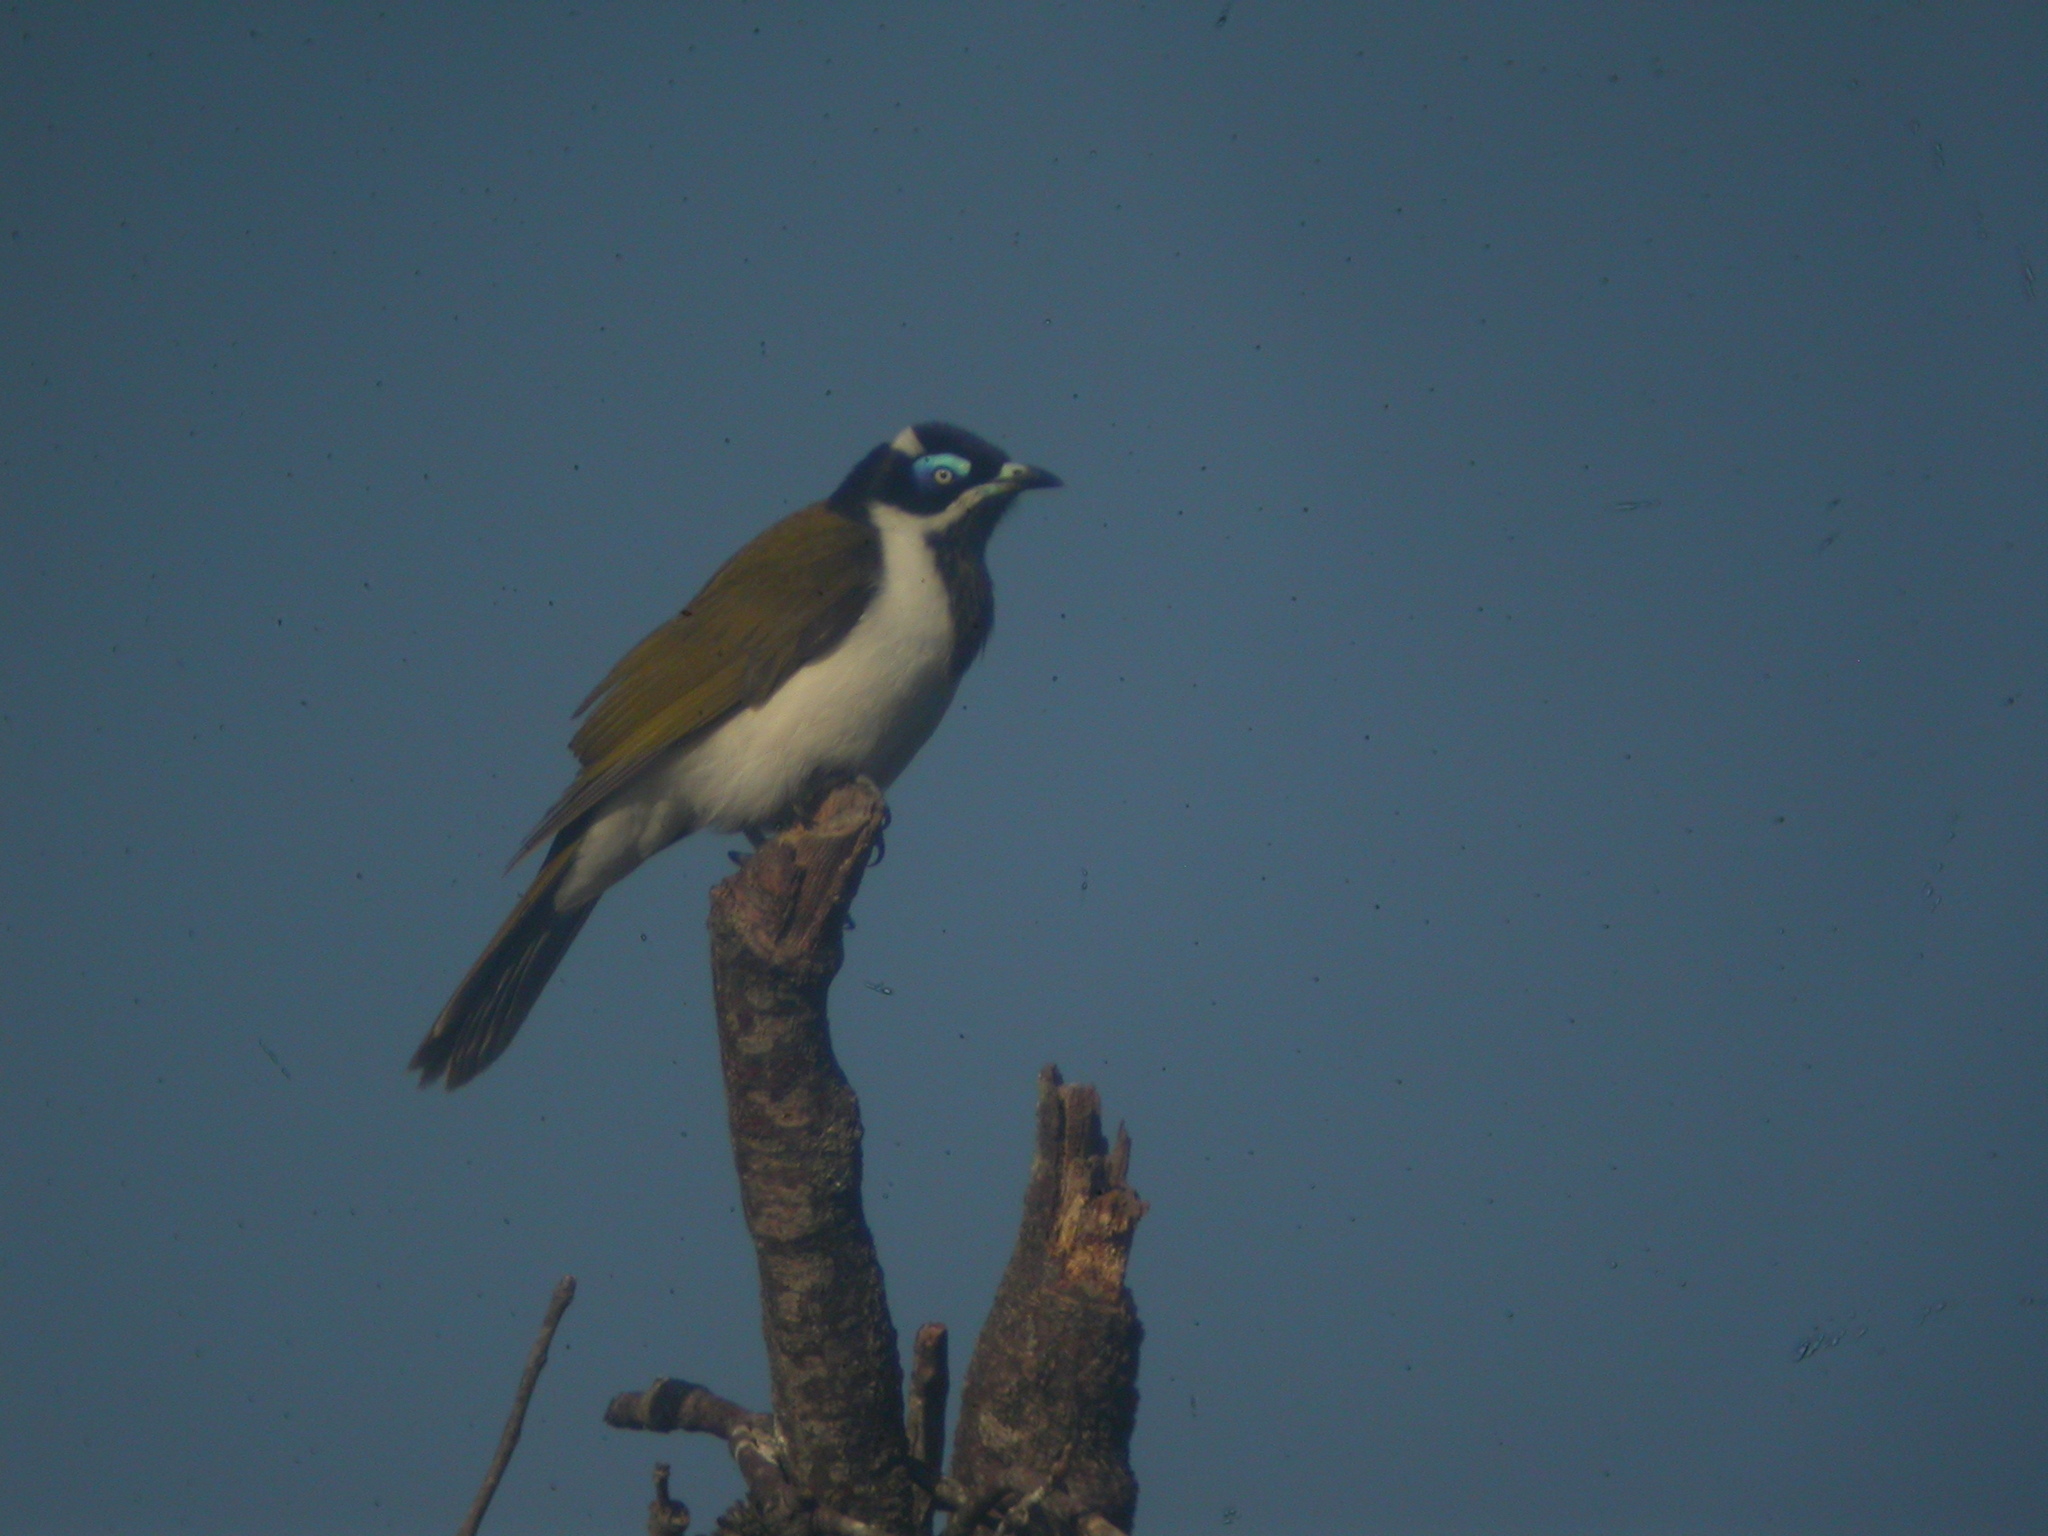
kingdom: Animalia
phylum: Chordata
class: Aves
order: Passeriformes
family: Meliphagidae
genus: Entomyzon
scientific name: Entomyzon cyanotis
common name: Blue-faced honeyeater
